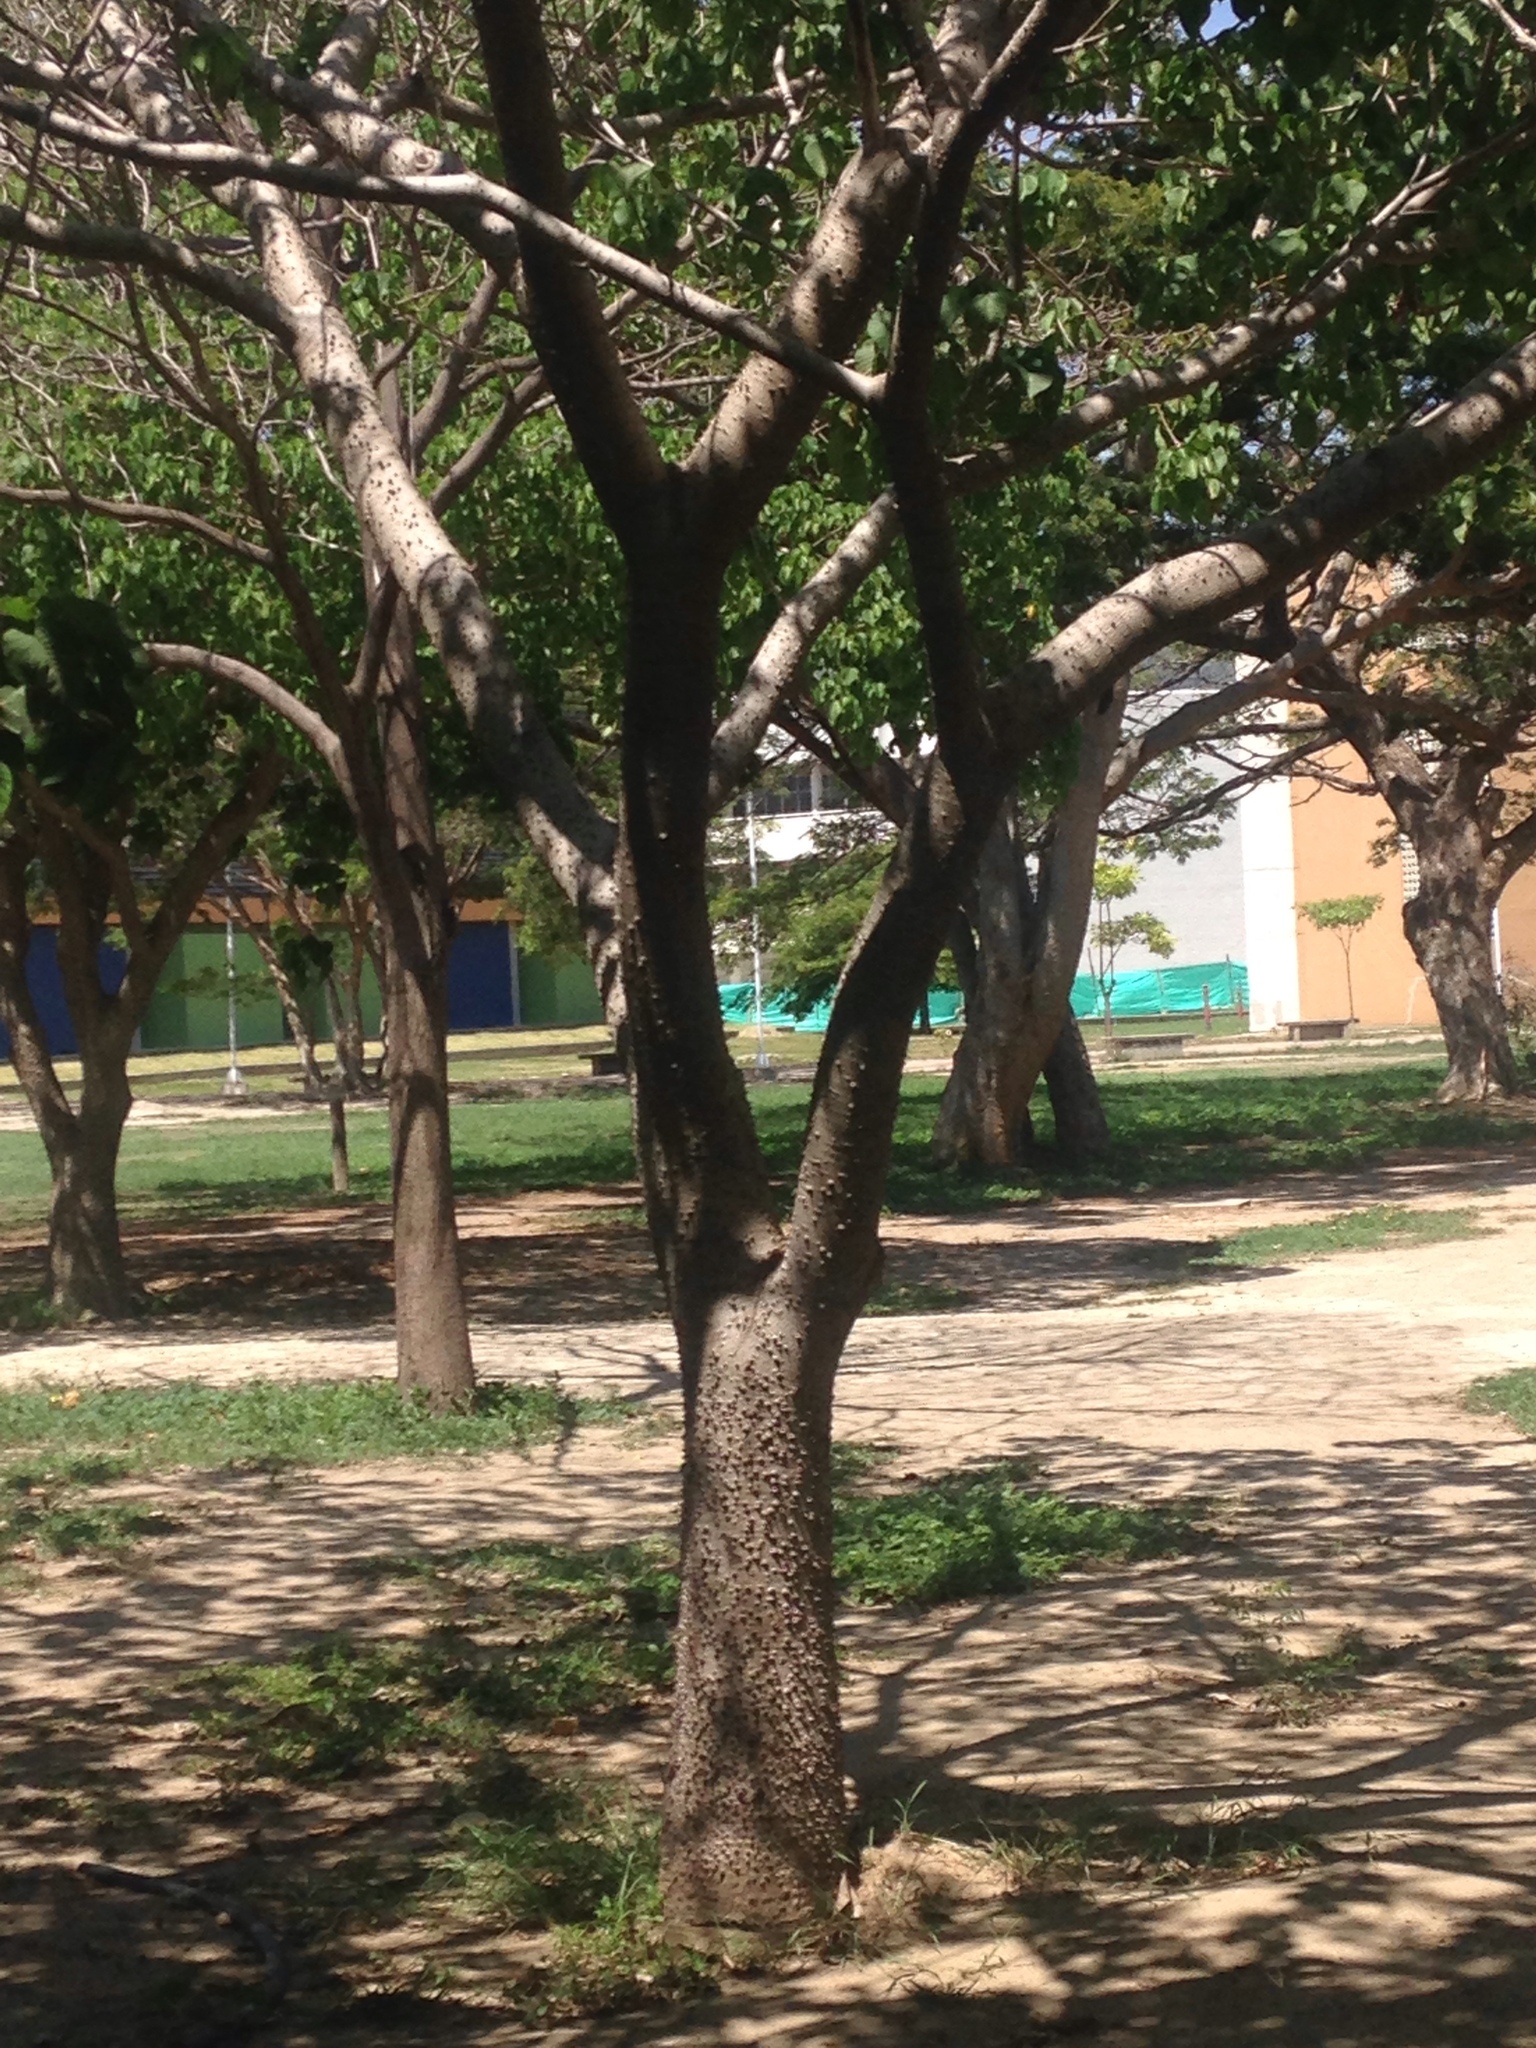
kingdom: Plantae
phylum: Tracheophyta
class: Magnoliopsida
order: Malpighiales
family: Euphorbiaceae
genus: Hura
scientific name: Hura crepitans
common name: Sandboxtree
